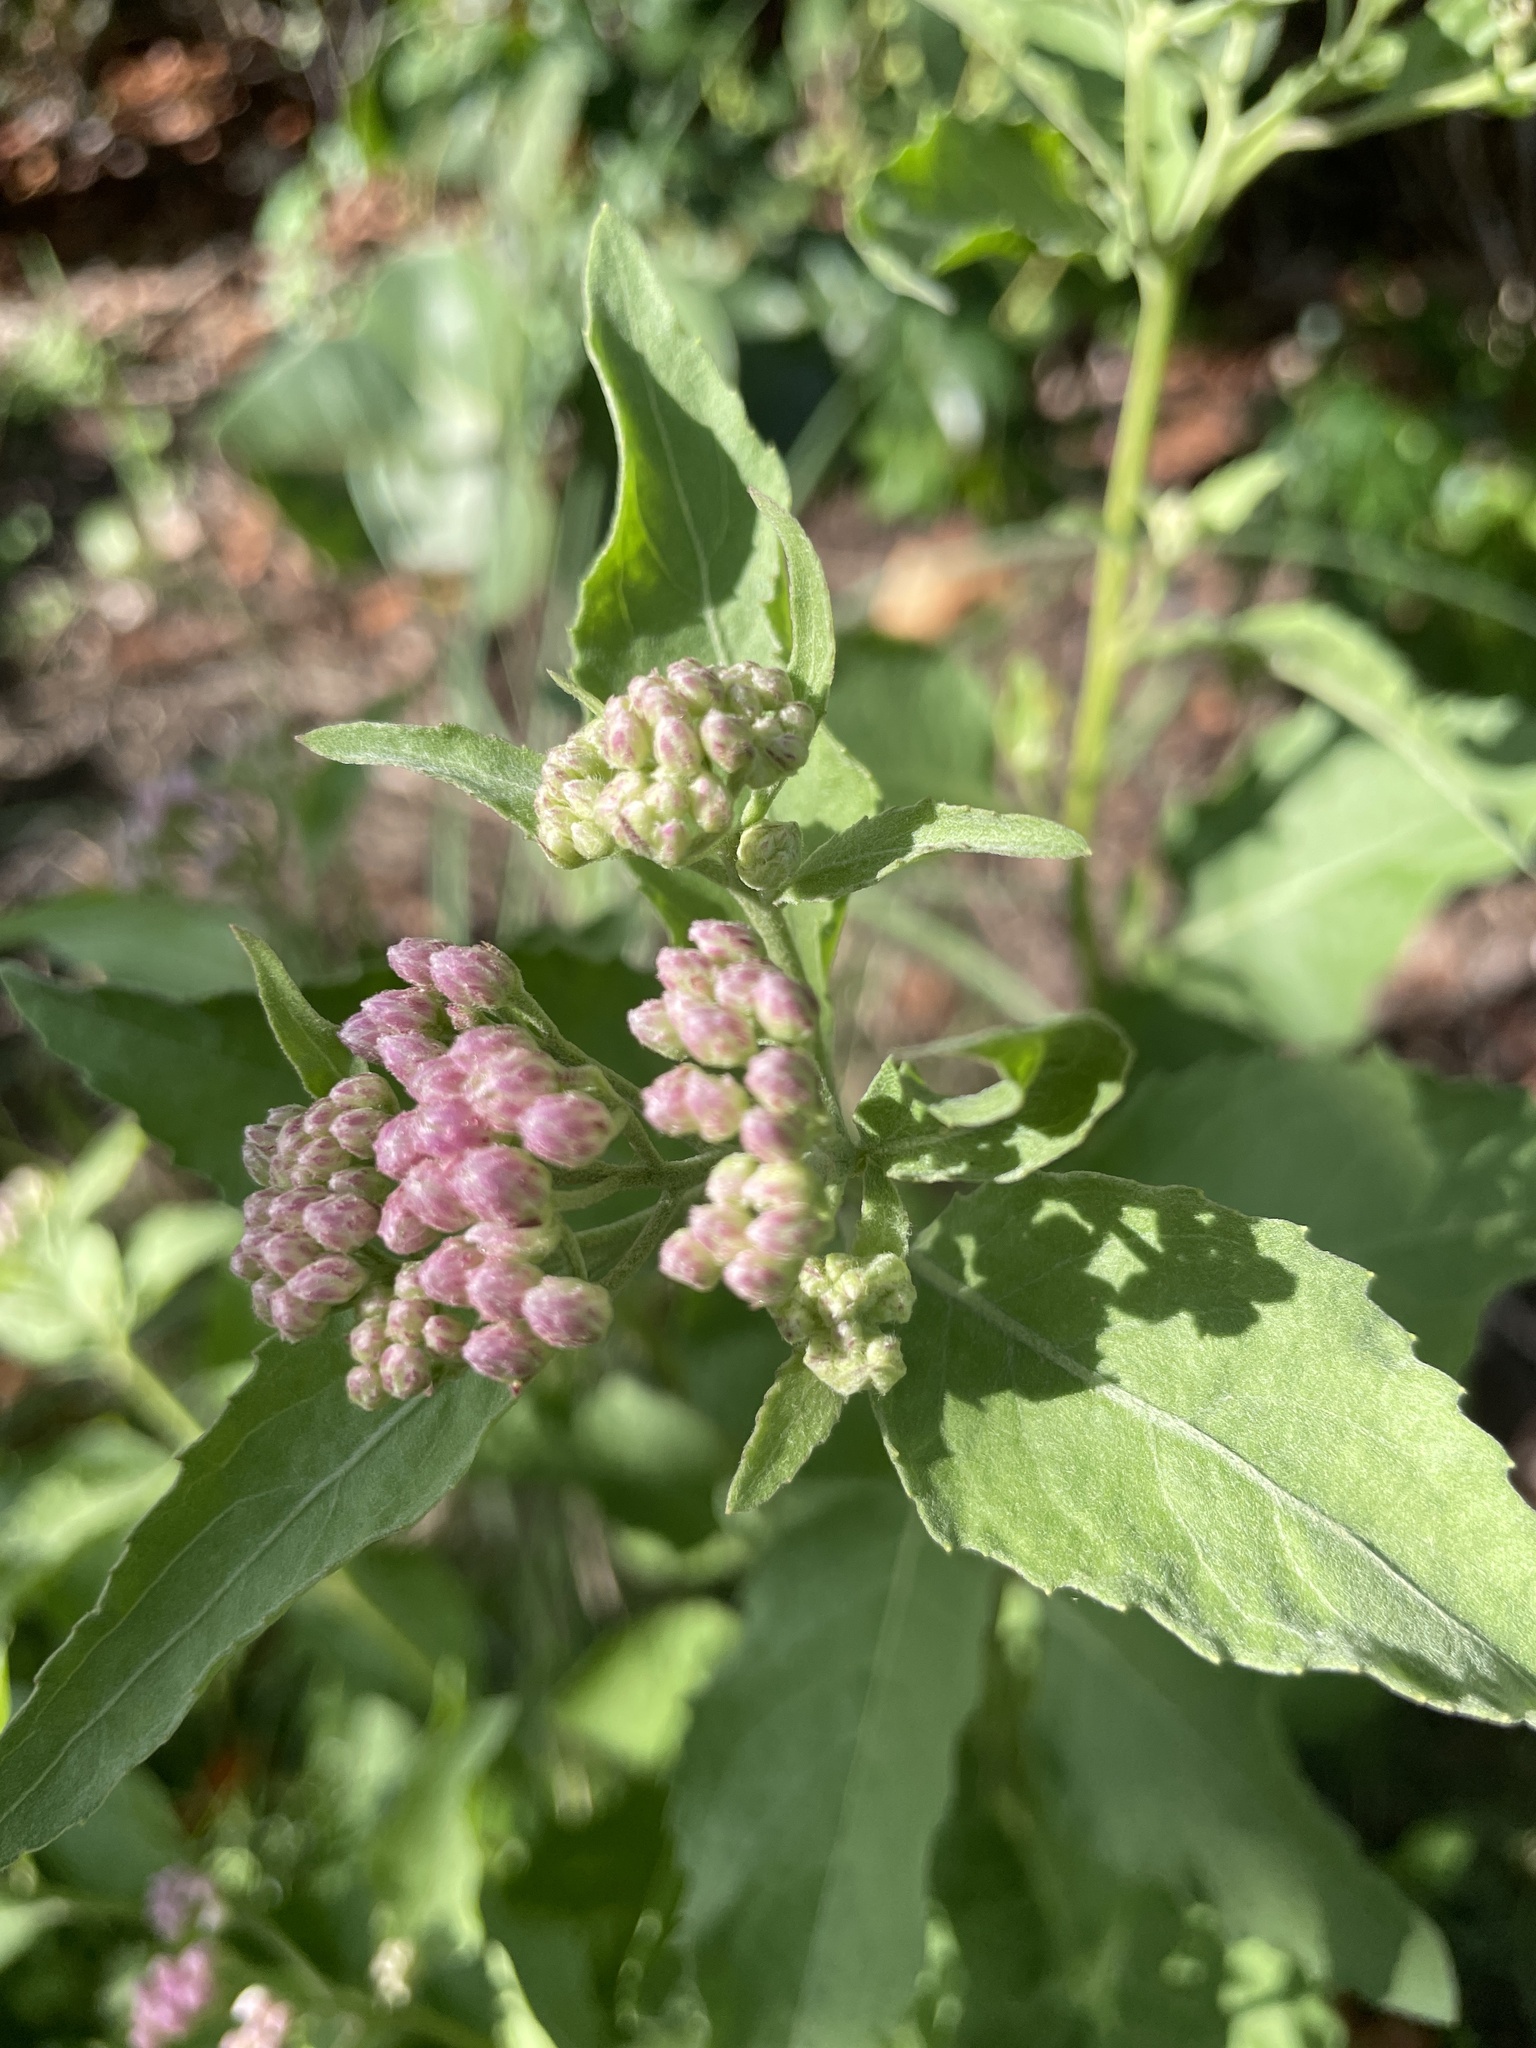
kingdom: Plantae
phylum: Tracheophyta
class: Magnoliopsida
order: Asterales
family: Asteraceae
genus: Pluchea
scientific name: Pluchea odorata
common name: Saltmarsh fleabane
